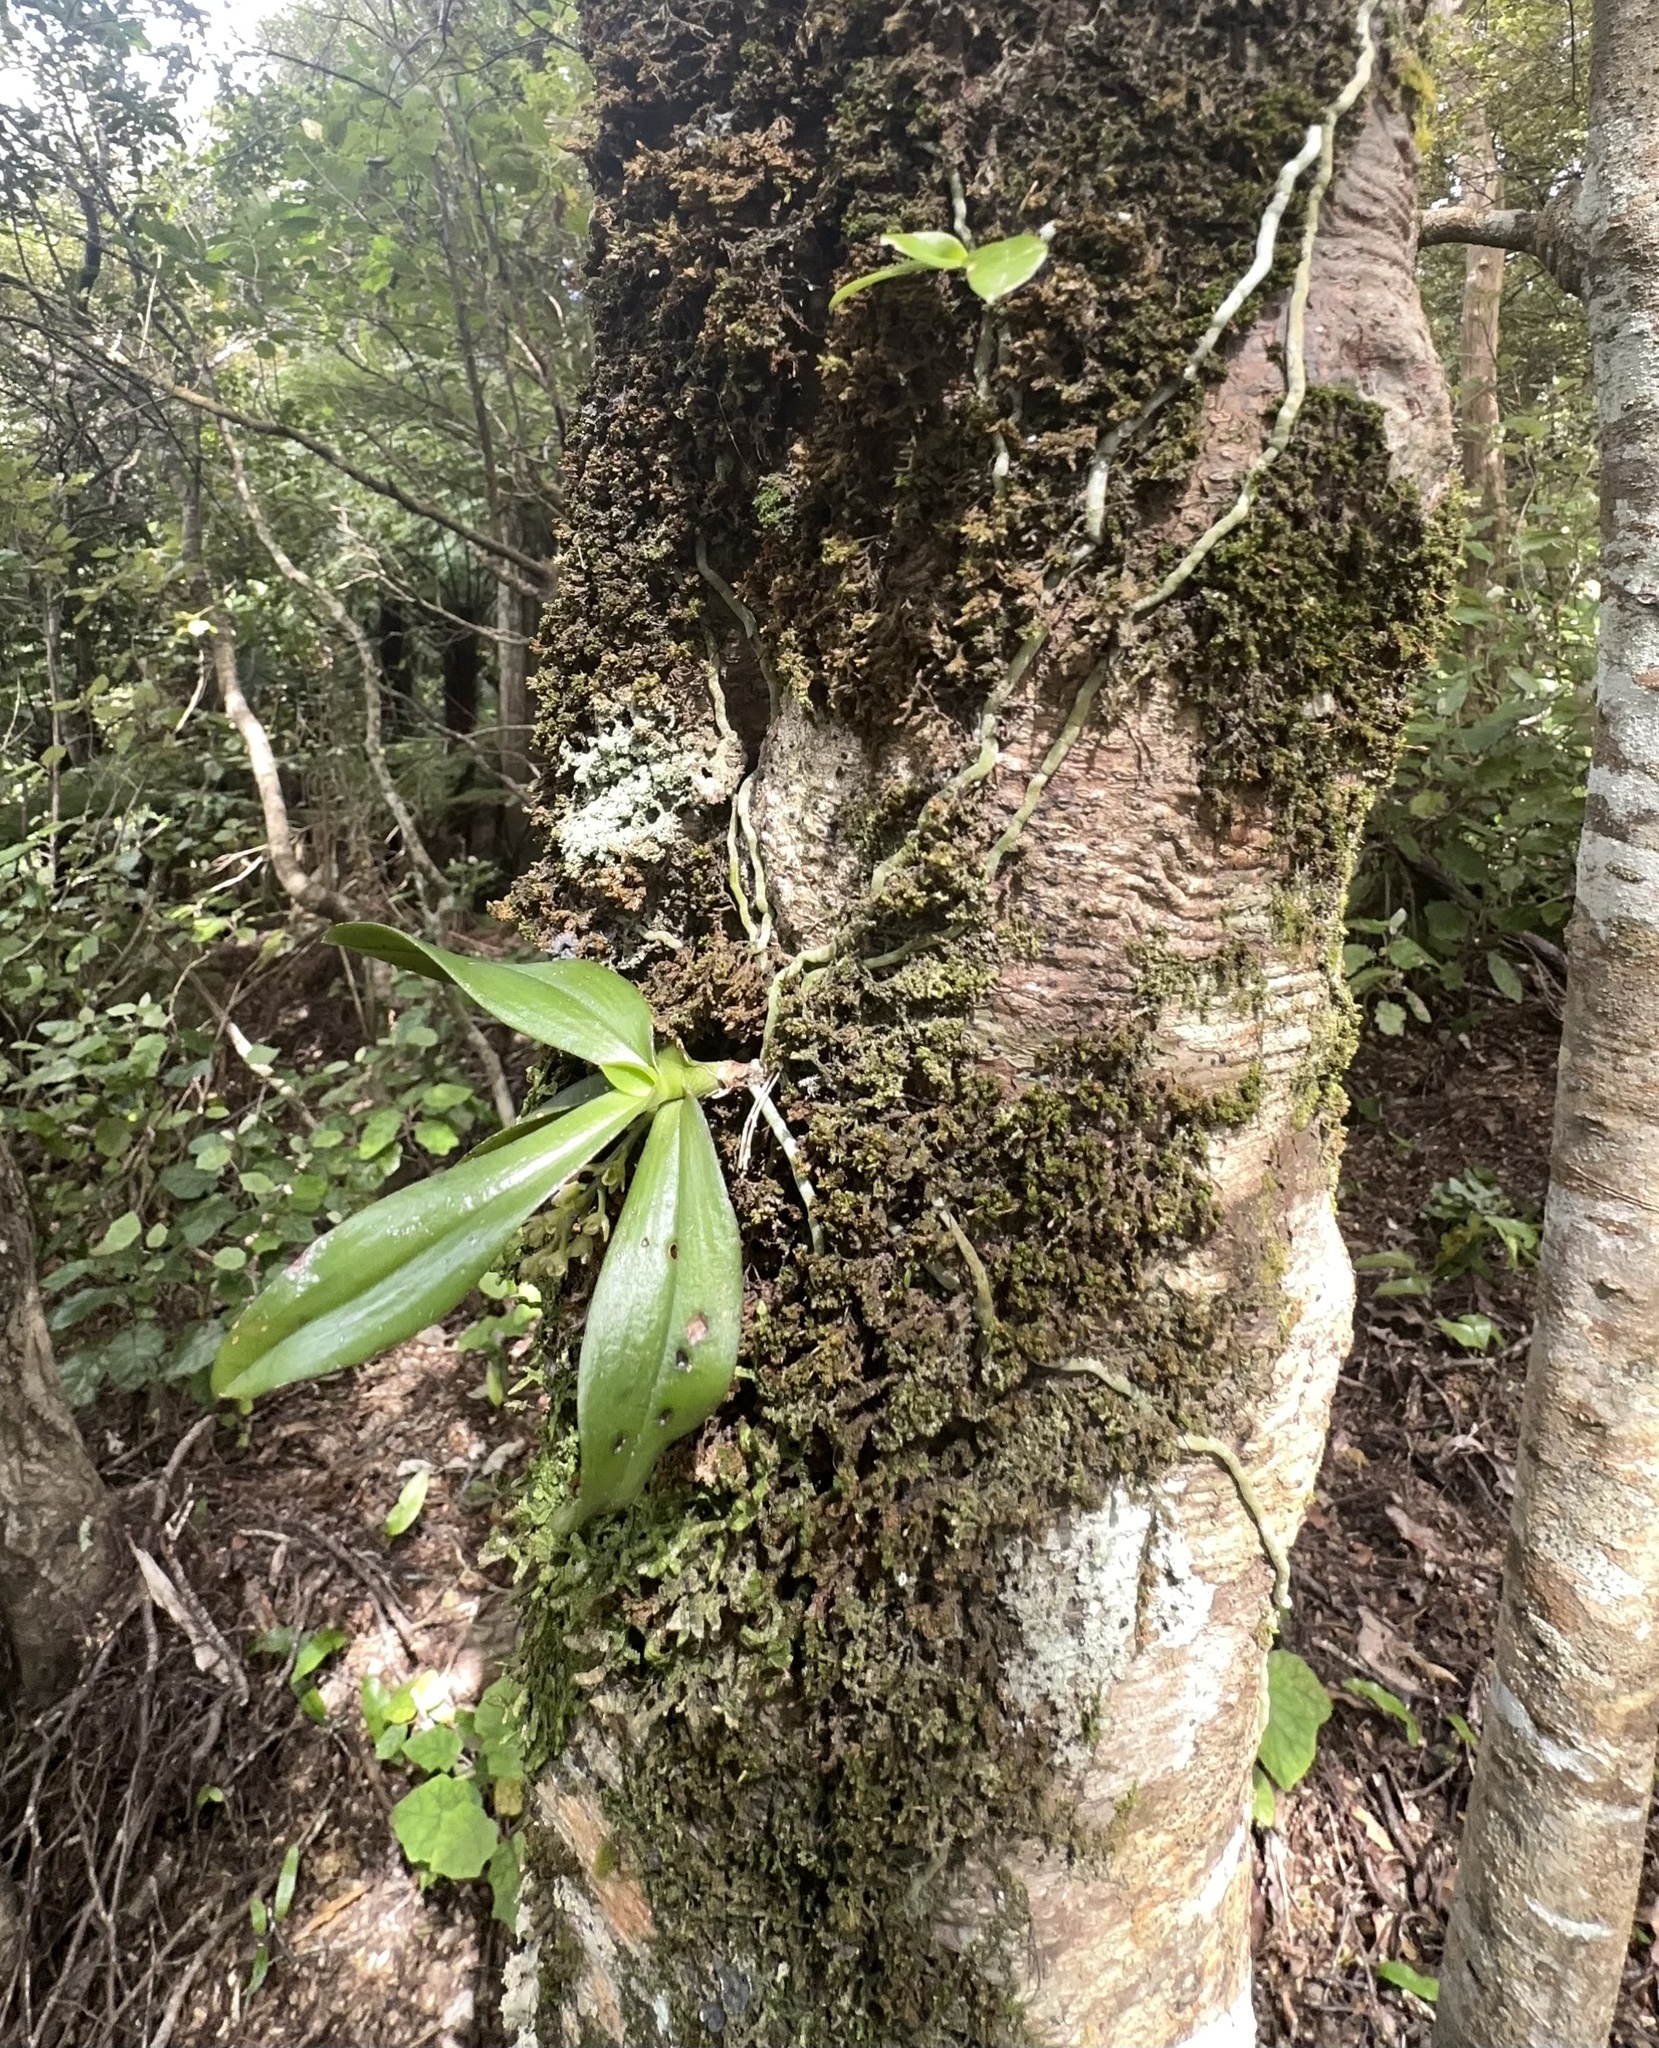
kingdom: Plantae
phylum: Tracheophyta
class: Liliopsida
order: Asparagales
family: Orchidaceae
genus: Drymoanthus
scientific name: Drymoanthus adversus
